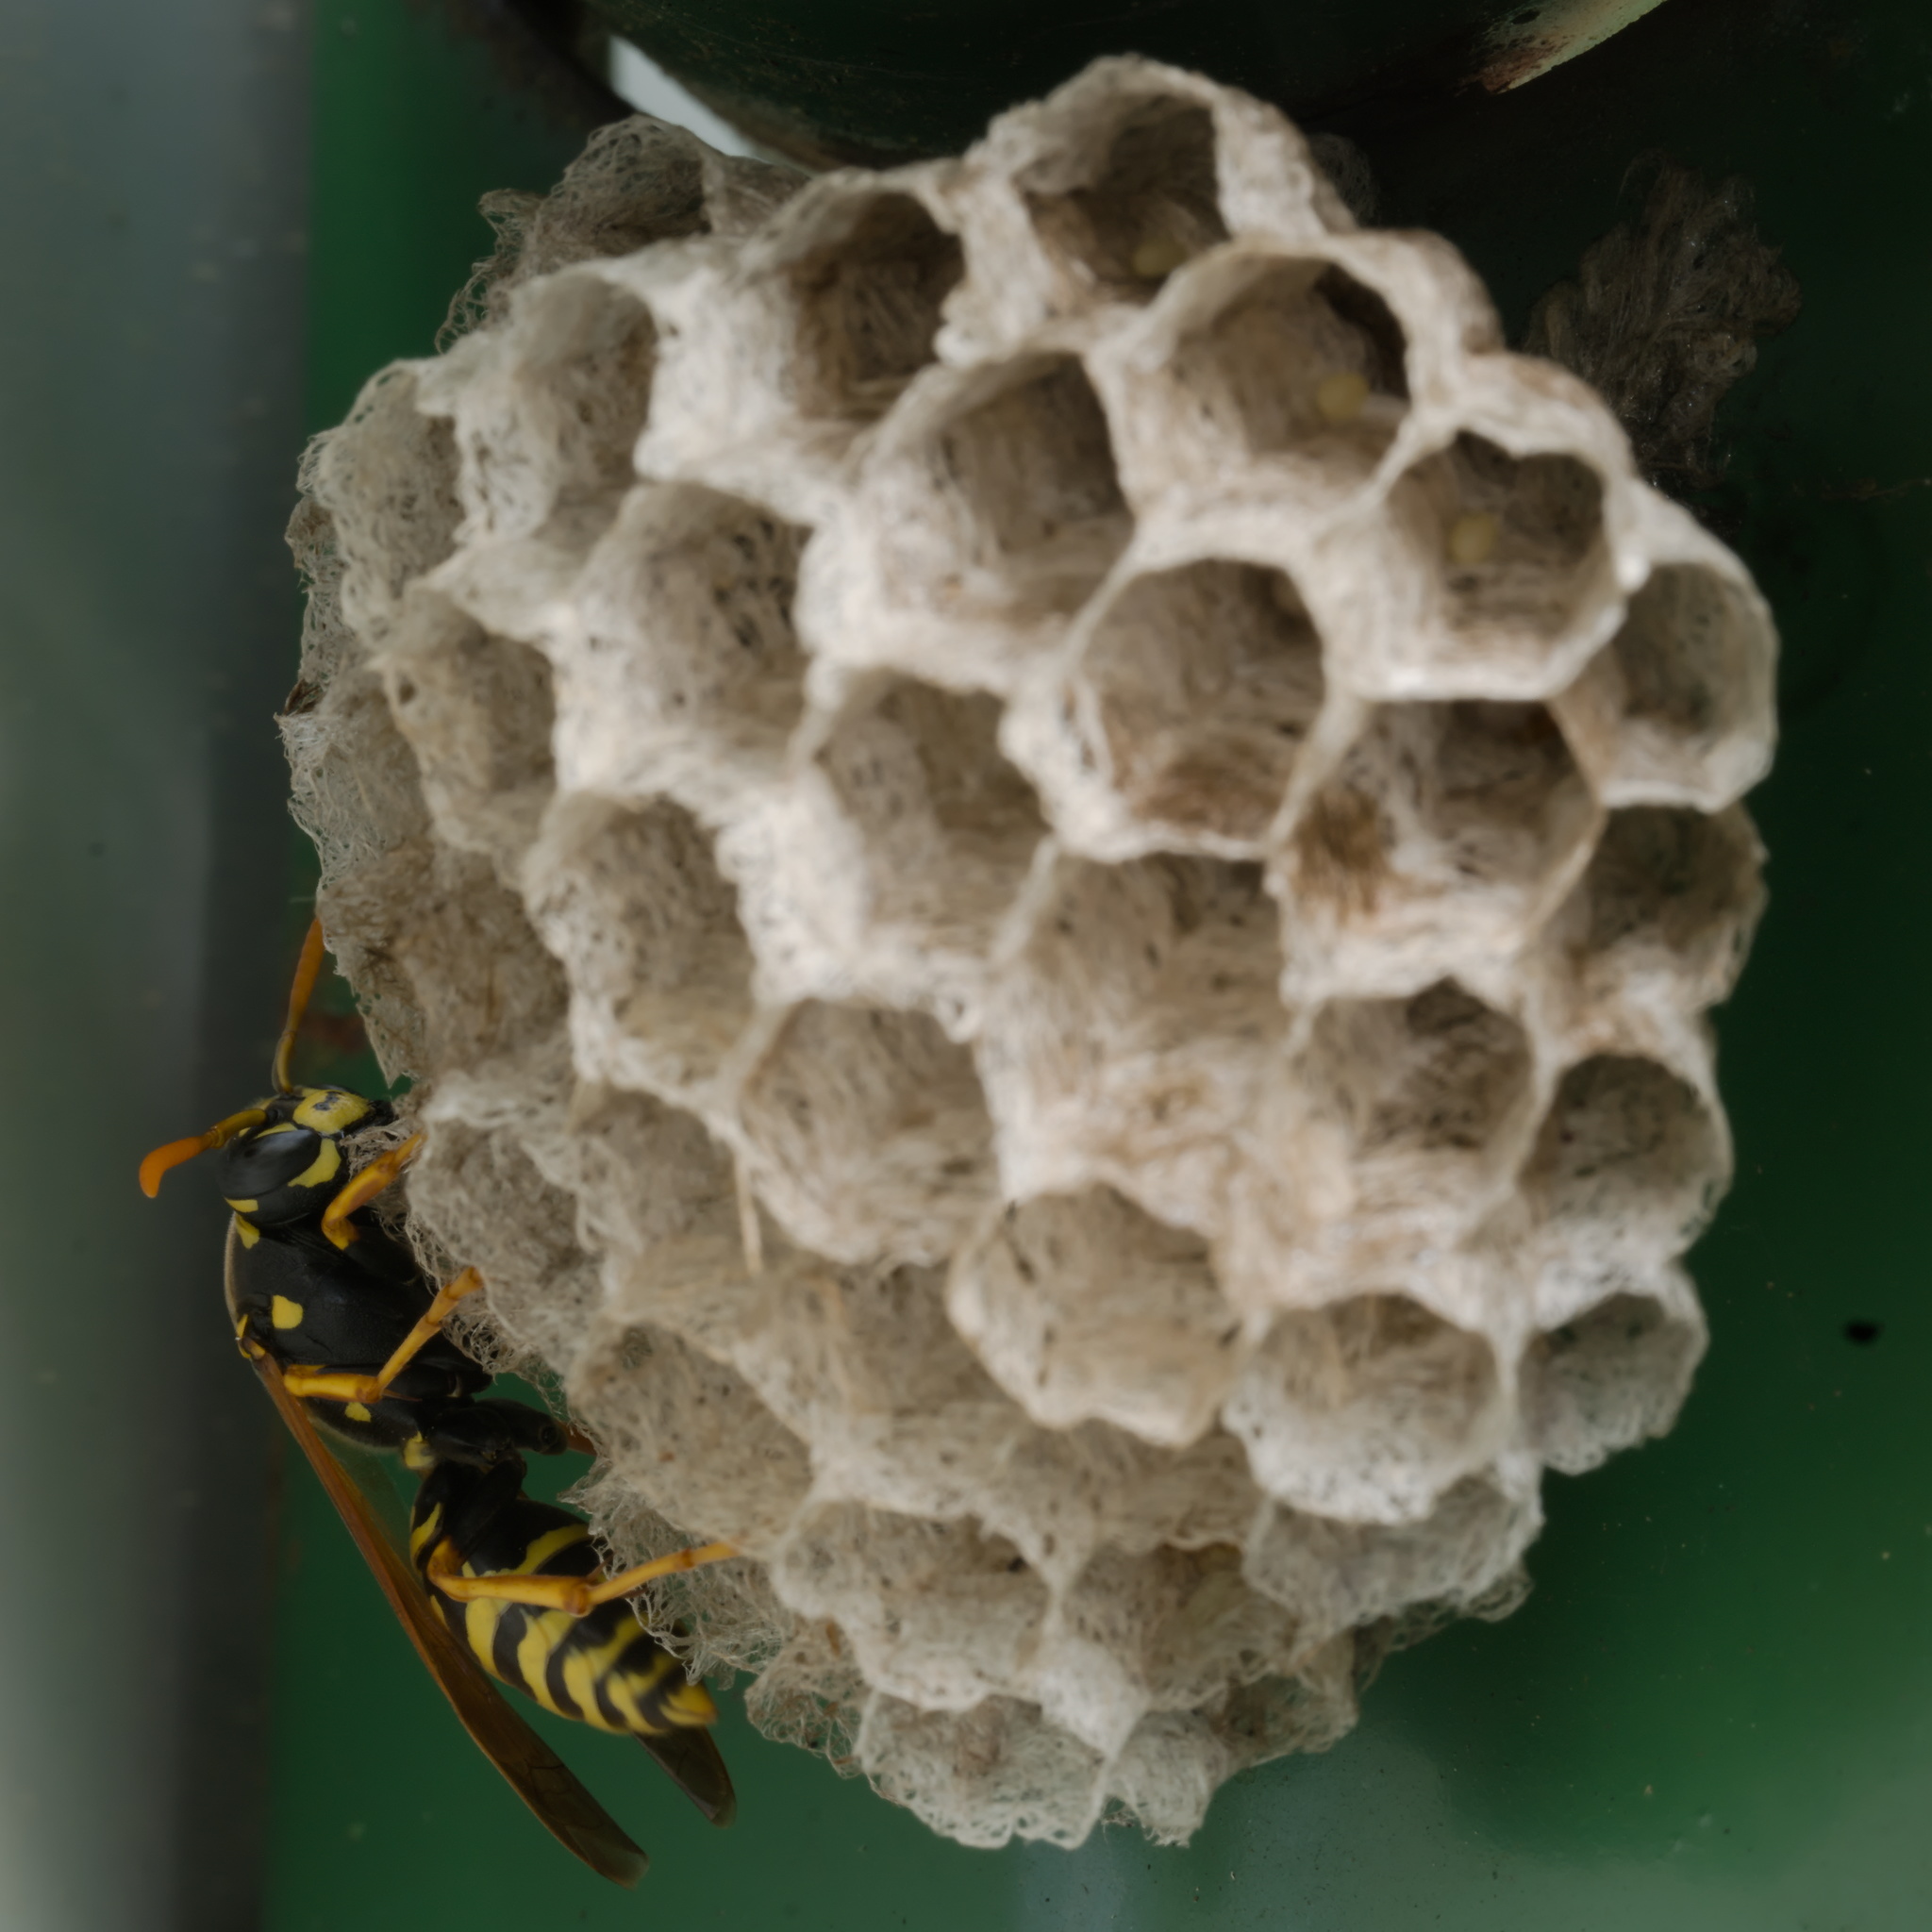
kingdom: Animalia
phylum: Arthropoda
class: Insecta
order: Hymenoptera
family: Eumenidae
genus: Polistes
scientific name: Polistes dominula
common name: Paper wasp
